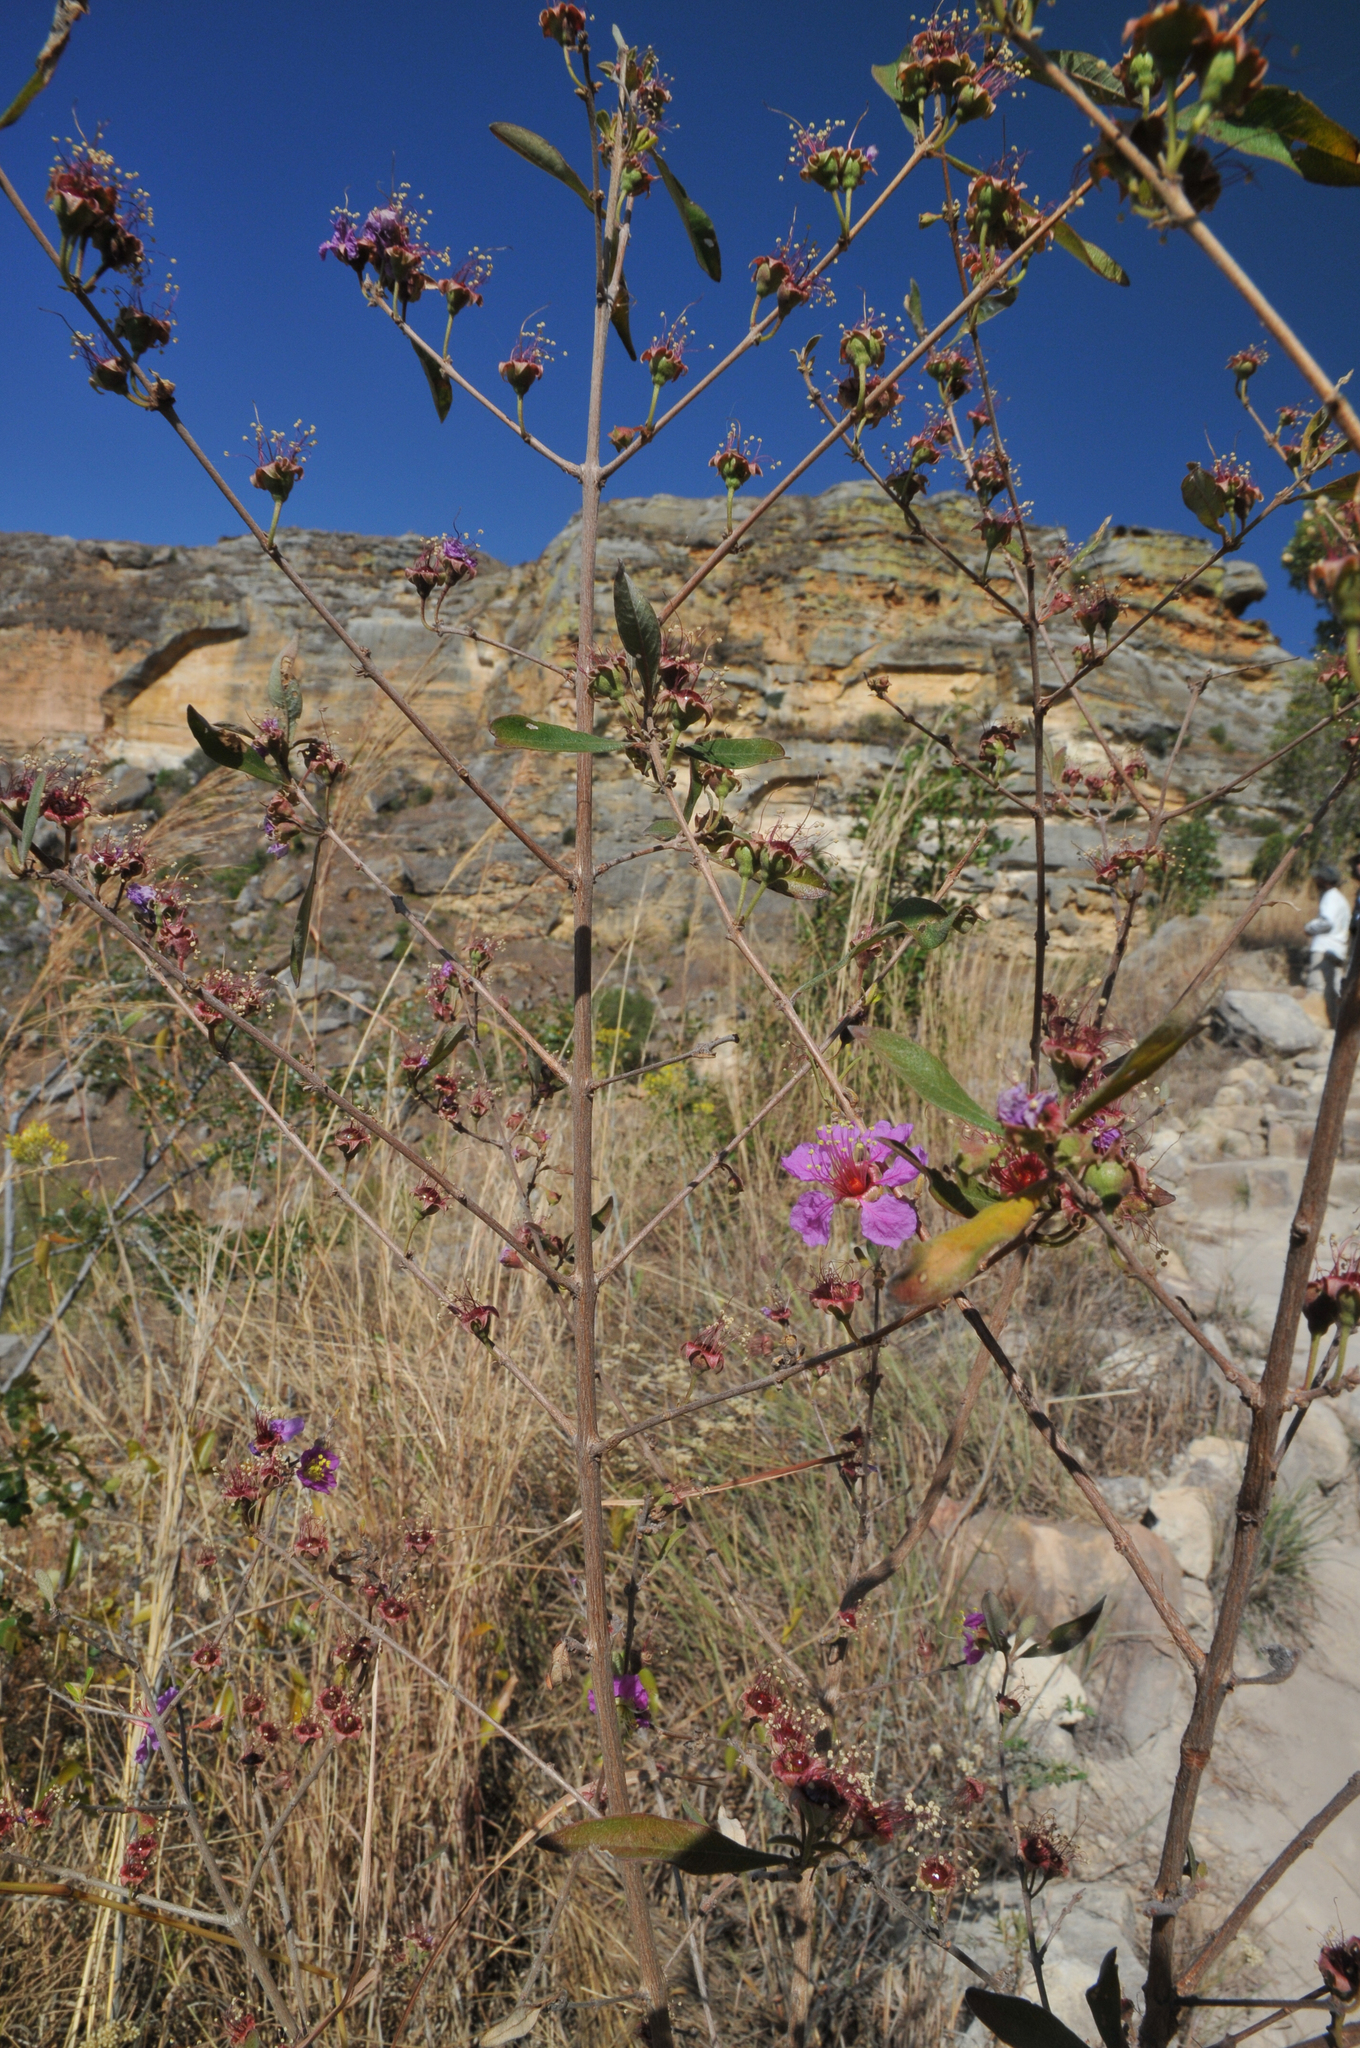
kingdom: Plantae
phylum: Tracheophyta
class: Magnoliopsida
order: Myrtales
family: Lythraceae
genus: Koehneria
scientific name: Koehneria madagascariensis
